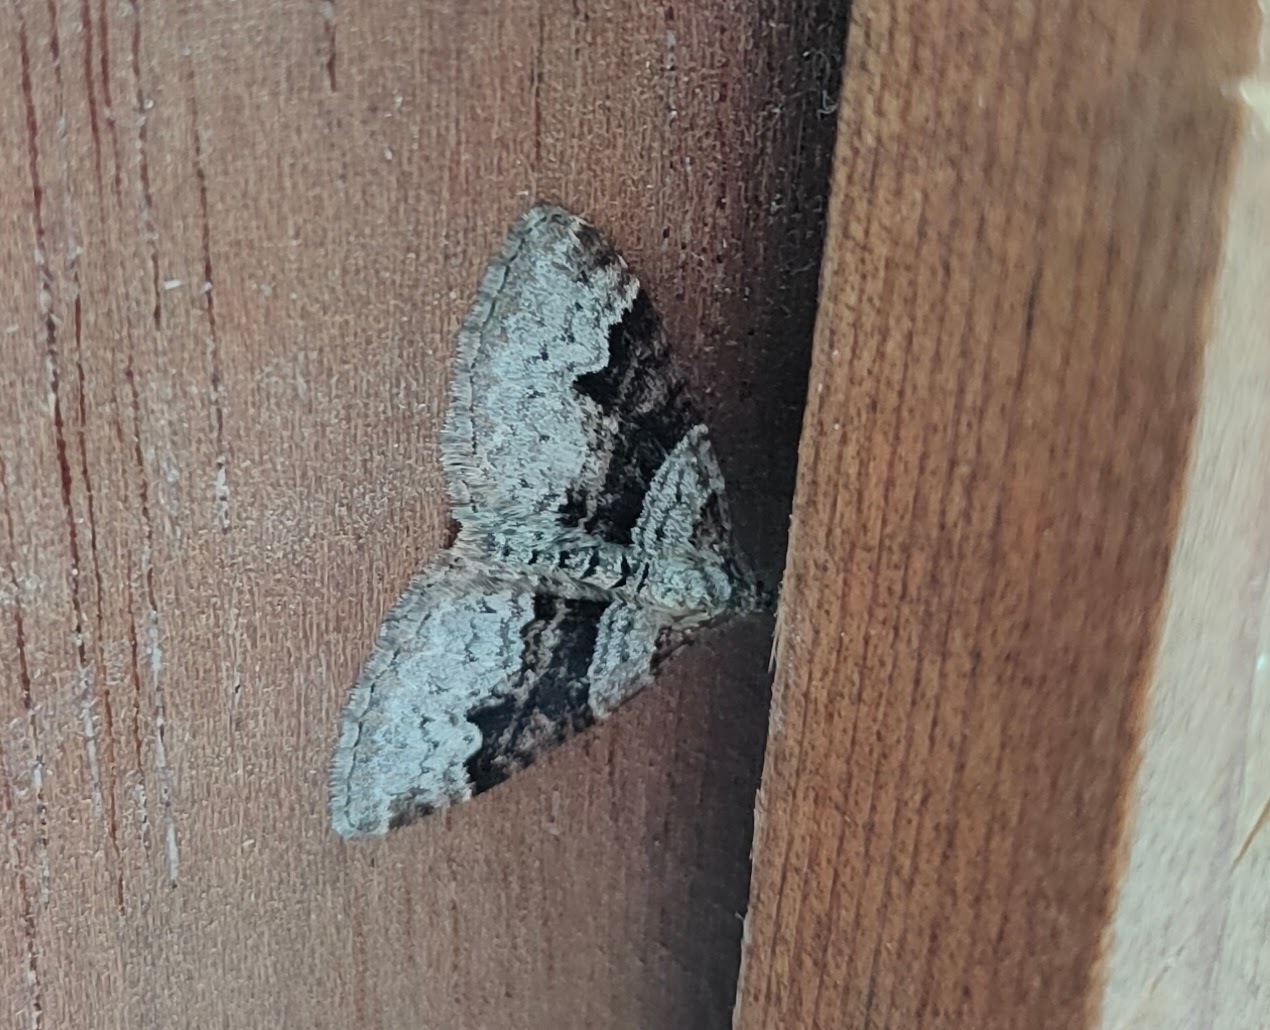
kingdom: Animalia
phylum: Arthropoda
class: Insecta
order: Lepidoptera
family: Geometridae
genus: Xanthorhoe
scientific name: Xanthorhoe designata
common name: Flame carpet
